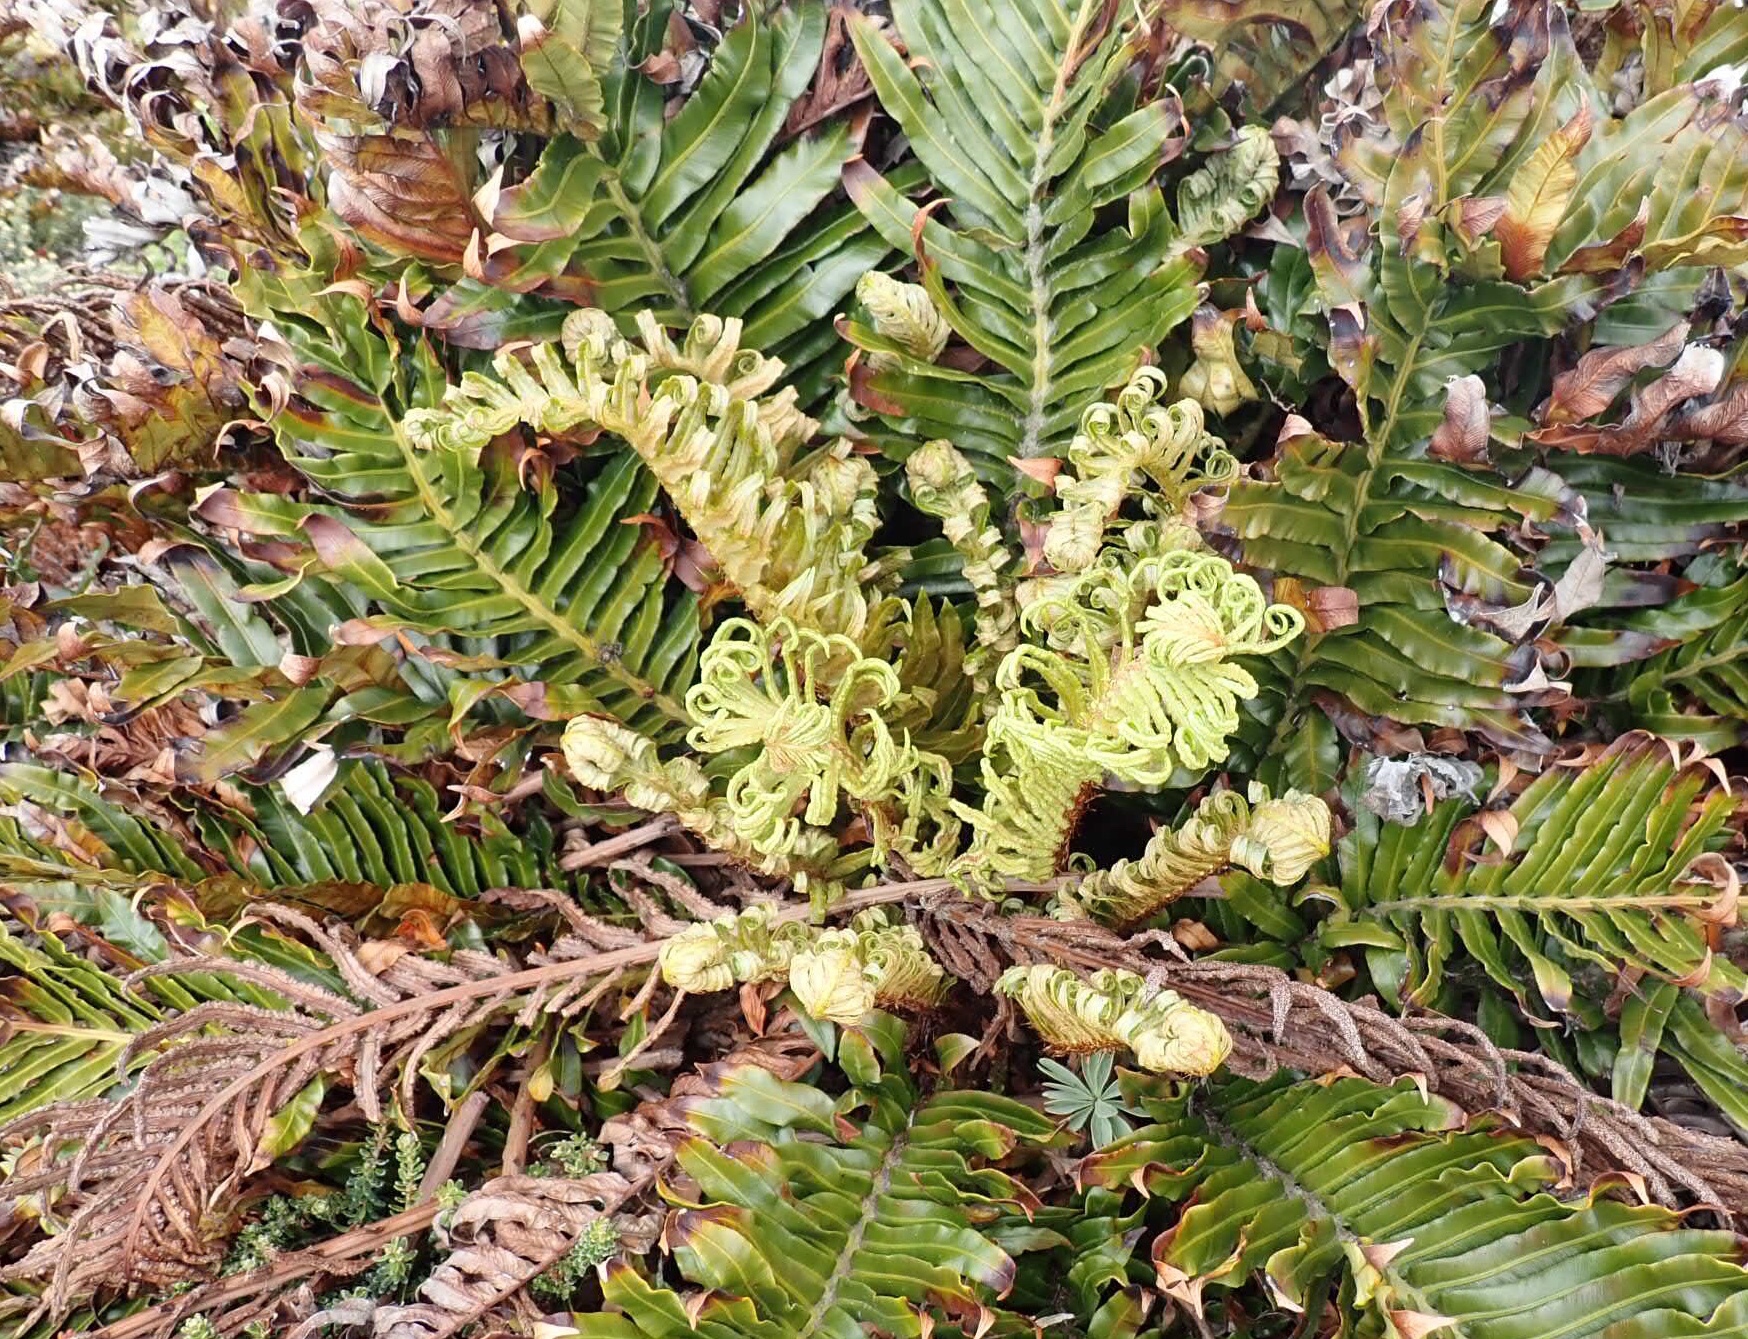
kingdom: Plantae
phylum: Tracheophyta
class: Polypodiopsida
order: Polypodiales
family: Blechnaceae
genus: Lomariocycas
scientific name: Lomariocycas magellanica
